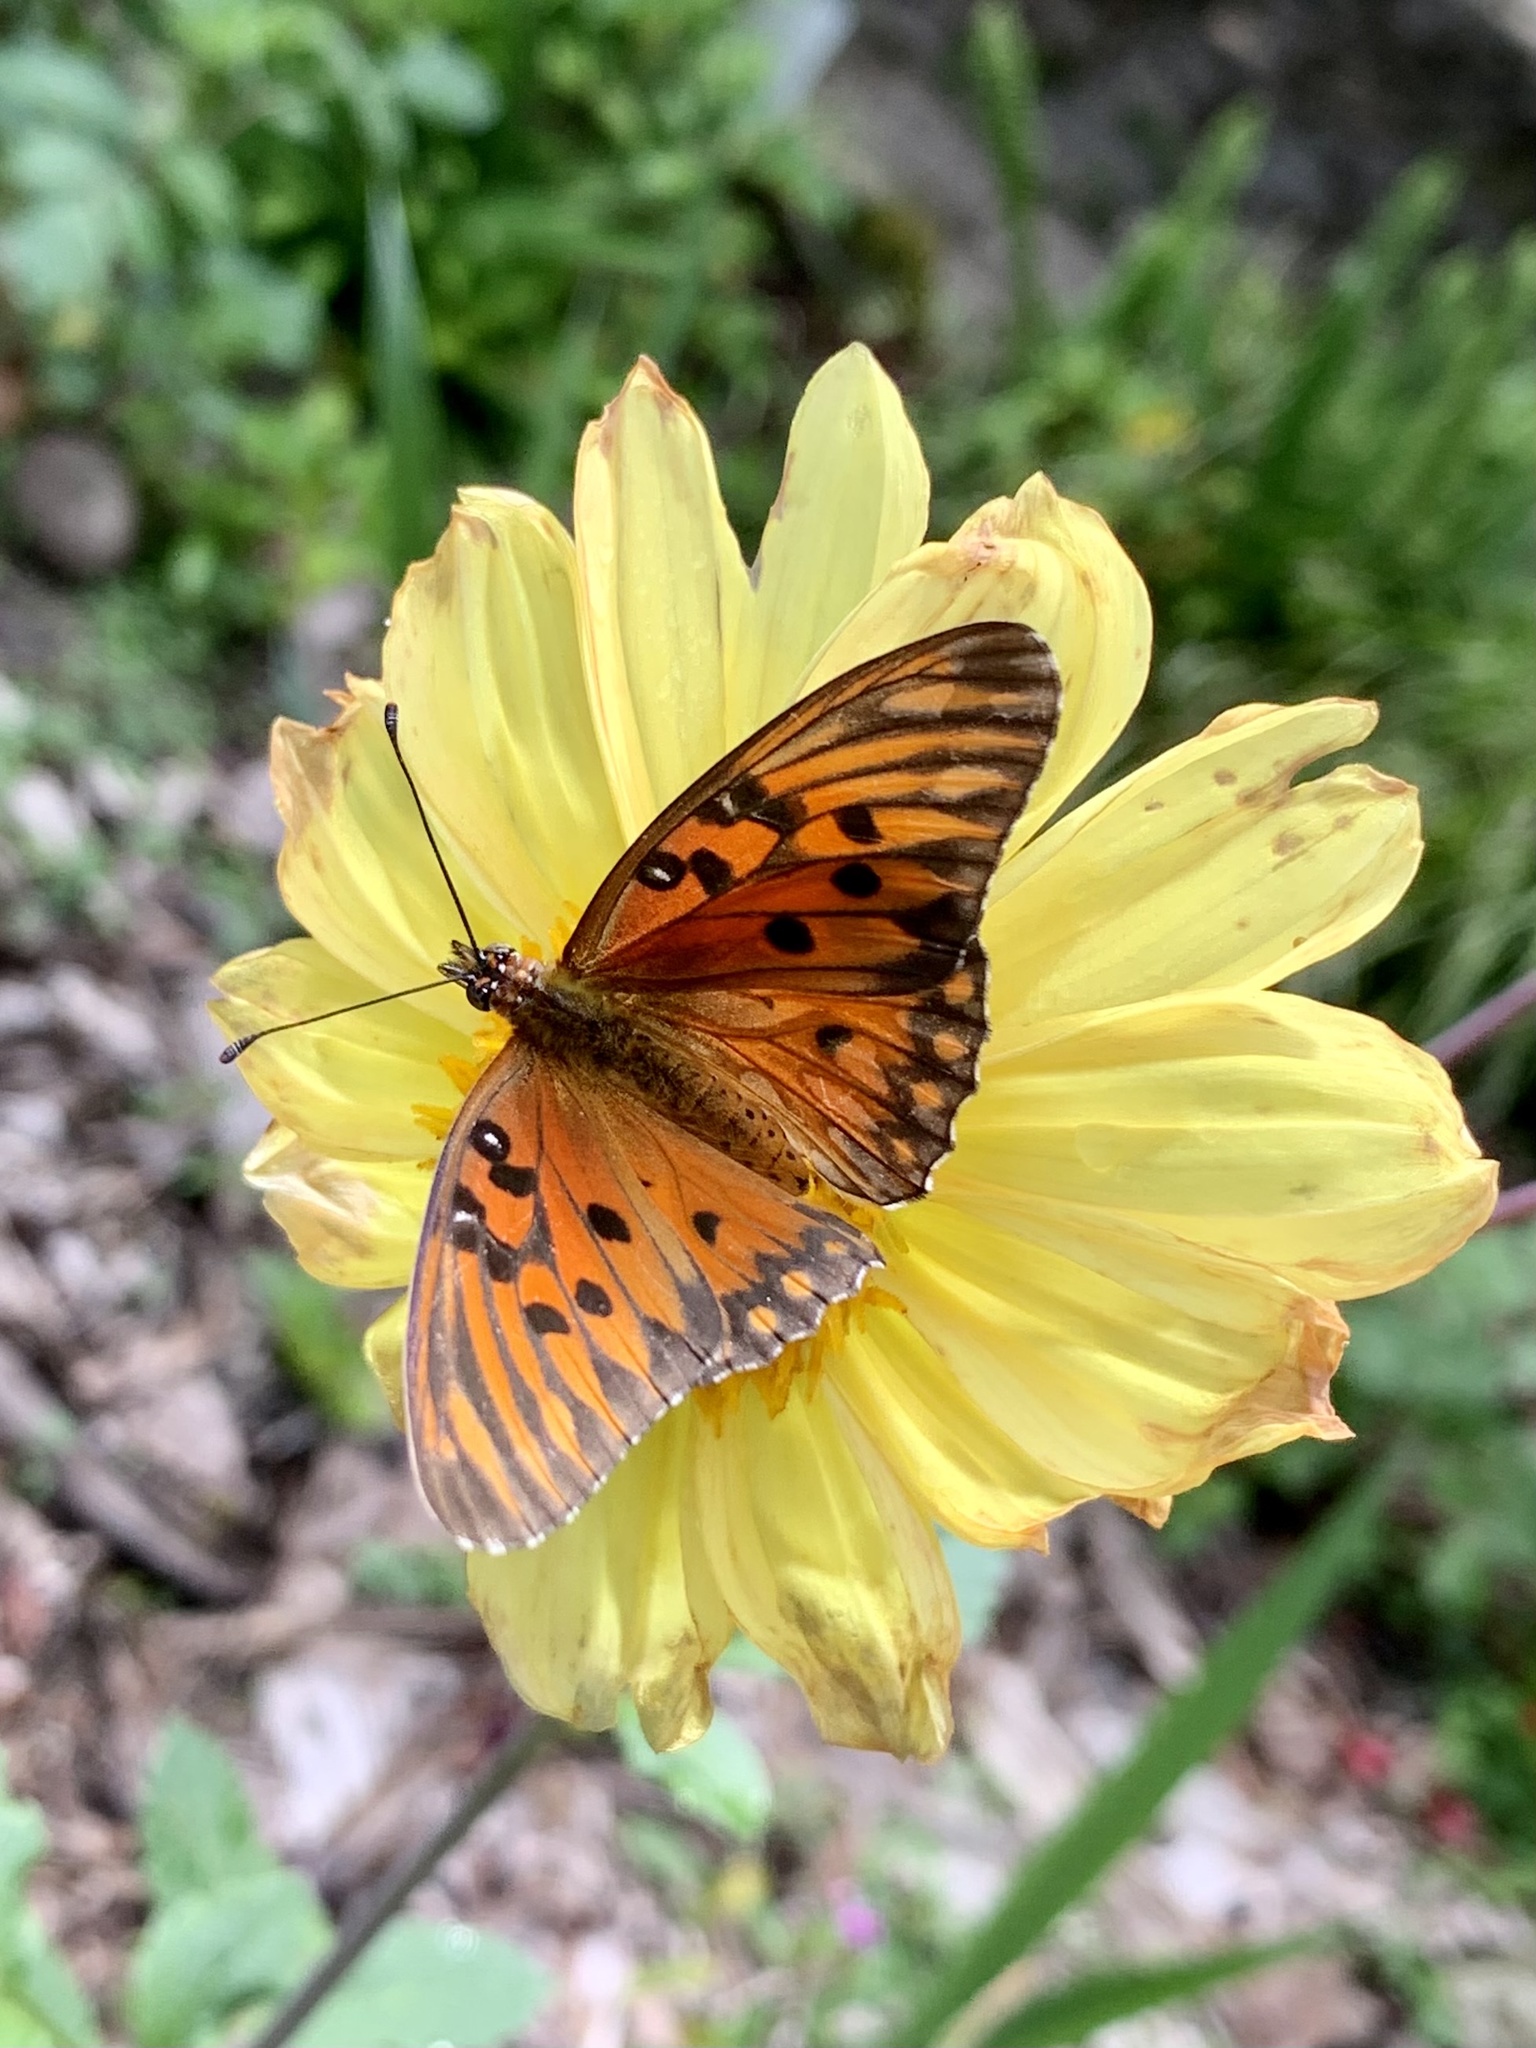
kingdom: Animalia
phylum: Arthropoda
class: Insecta
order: Lepidoptera
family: Nymphalidae
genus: Dione
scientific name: Dione vanillae
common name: Gulf fritillary
